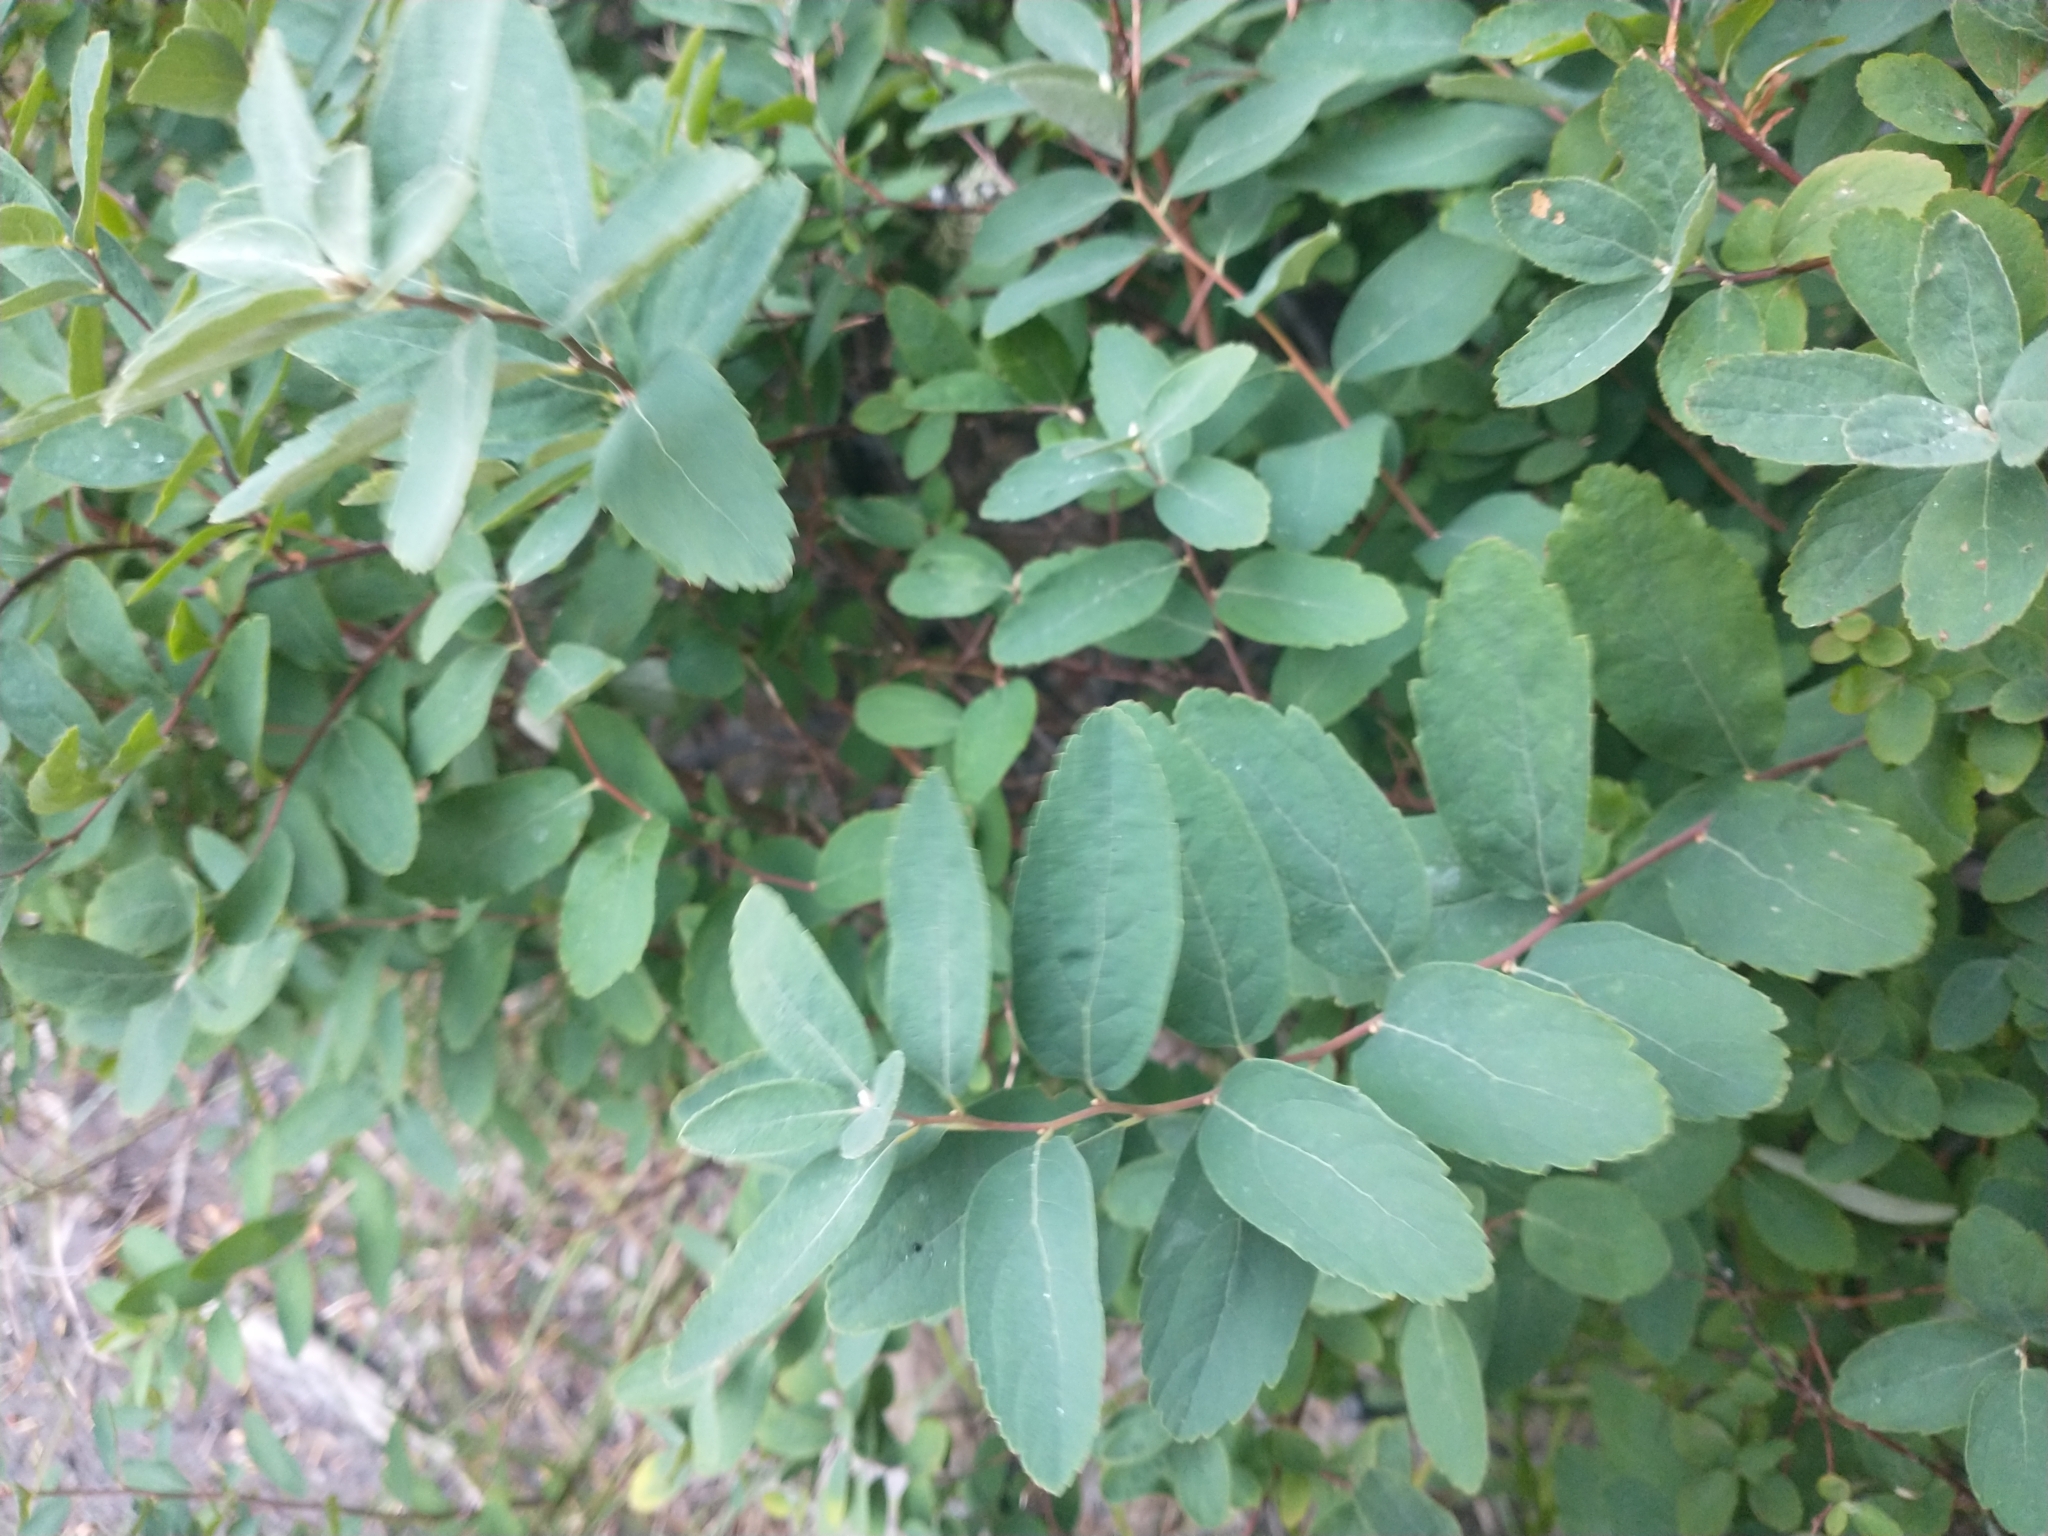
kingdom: Plantae
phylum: Tracheophyta
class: Magnoliopsida
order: Rosales
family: Rosaceae
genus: Spiraea
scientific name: Spiraea douglasii
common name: Steeplebush
